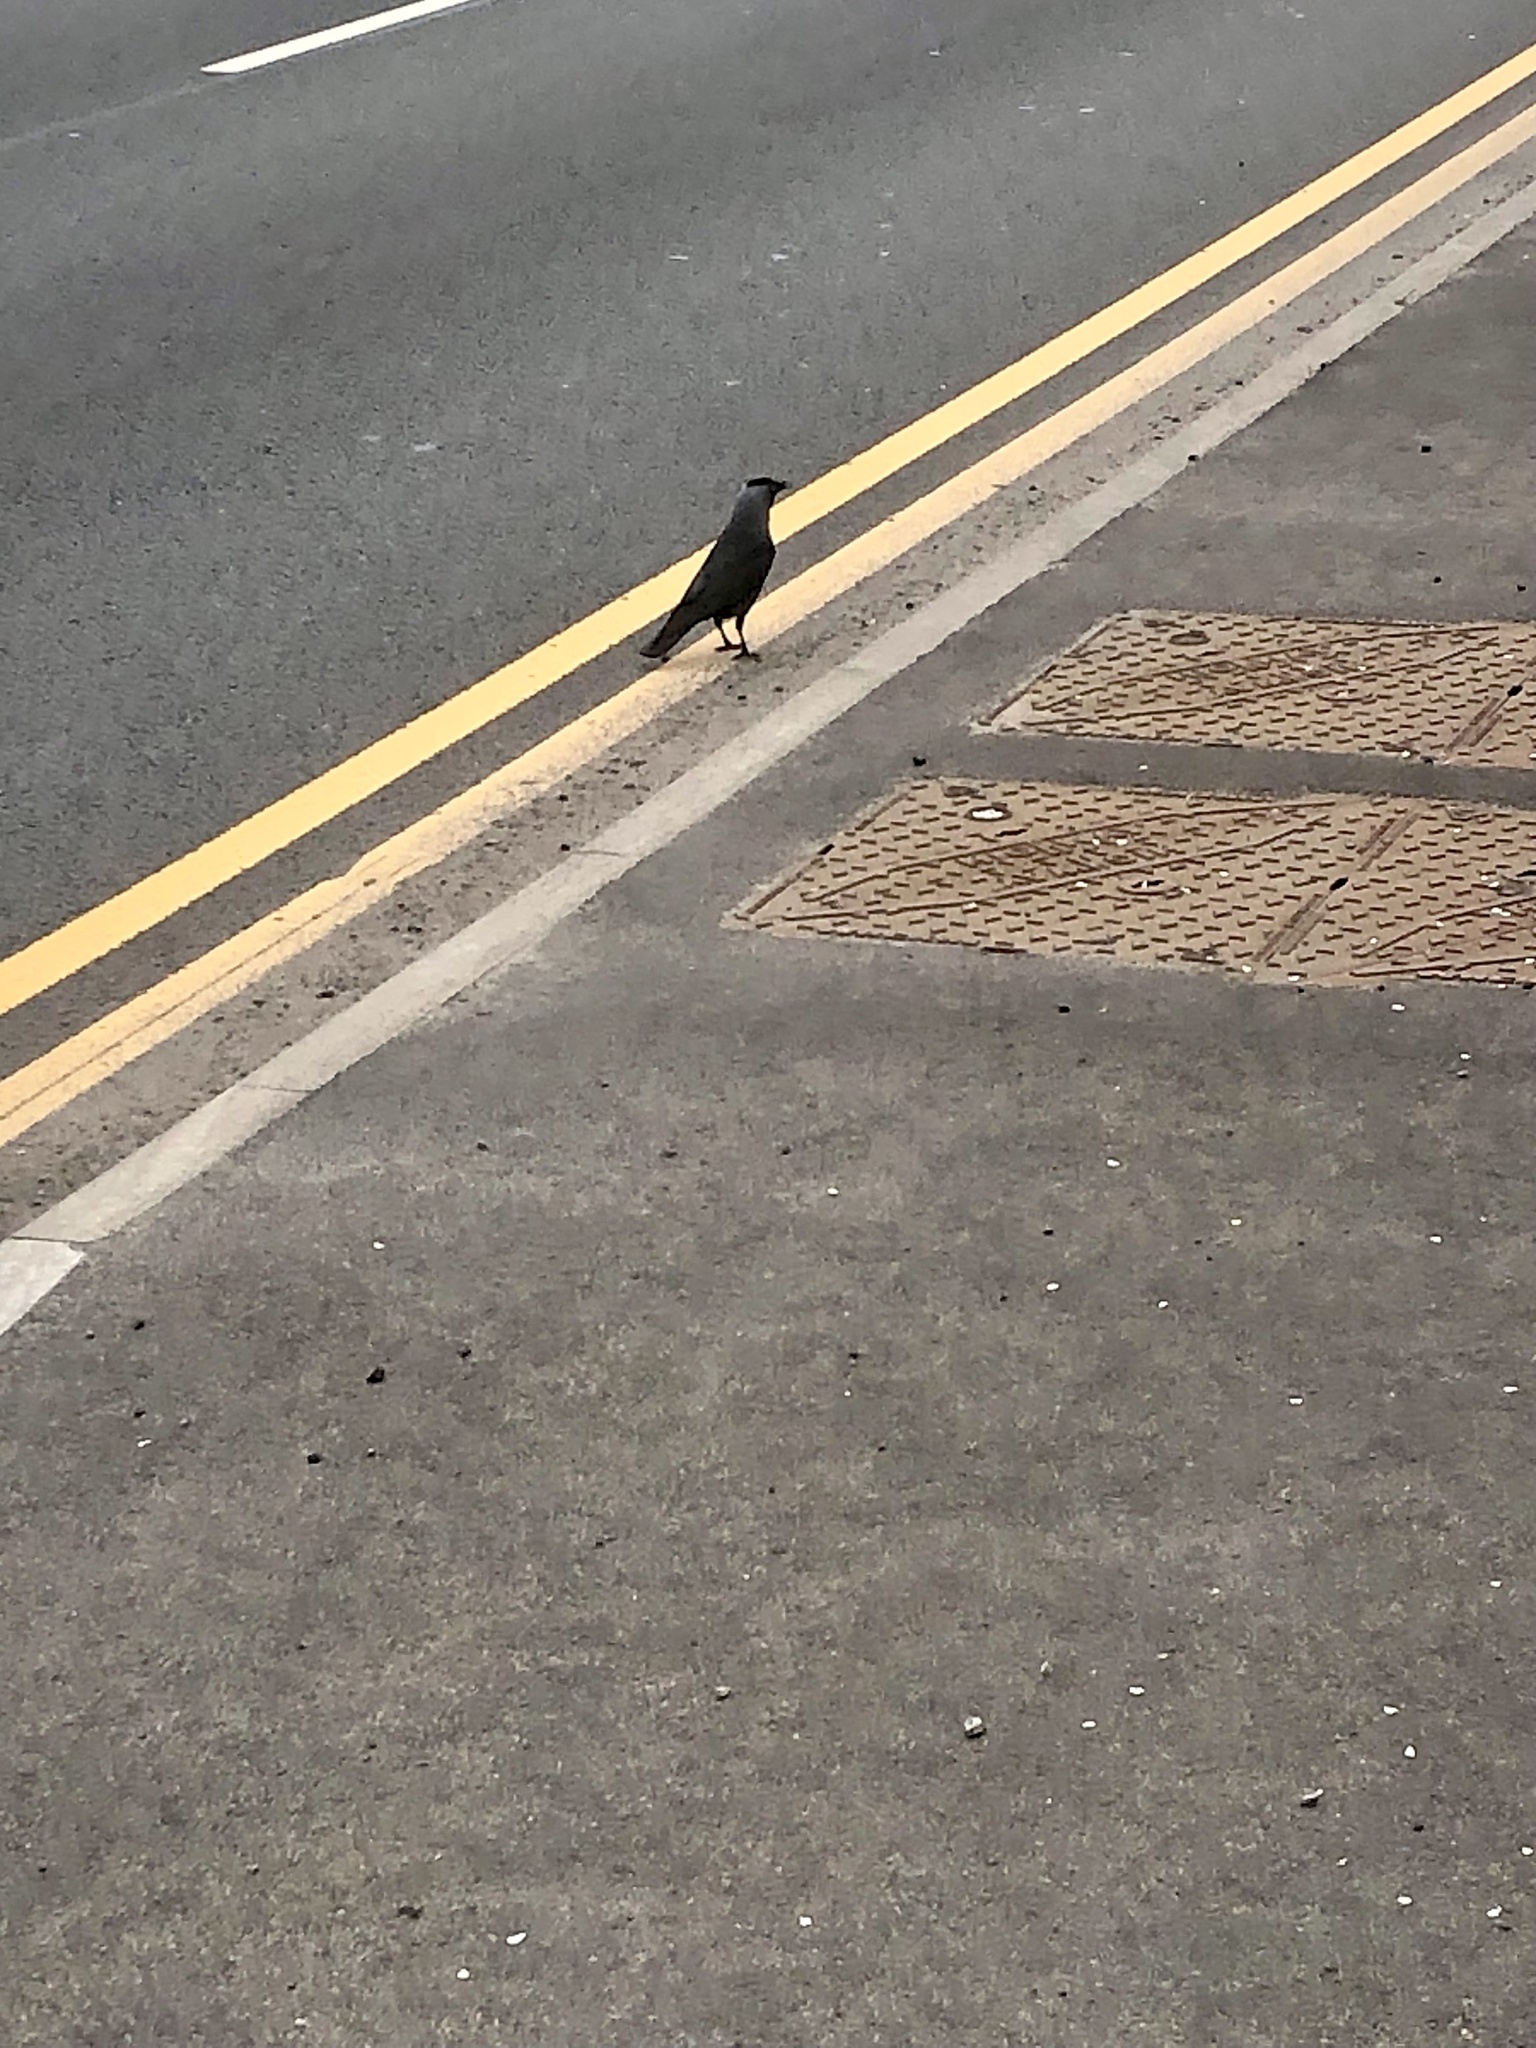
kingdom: Animalia
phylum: Chordata
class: Aves
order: Passeriformes
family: Corvidae
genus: Coloeus
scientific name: Coloeus monedula
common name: Western jackdaw
